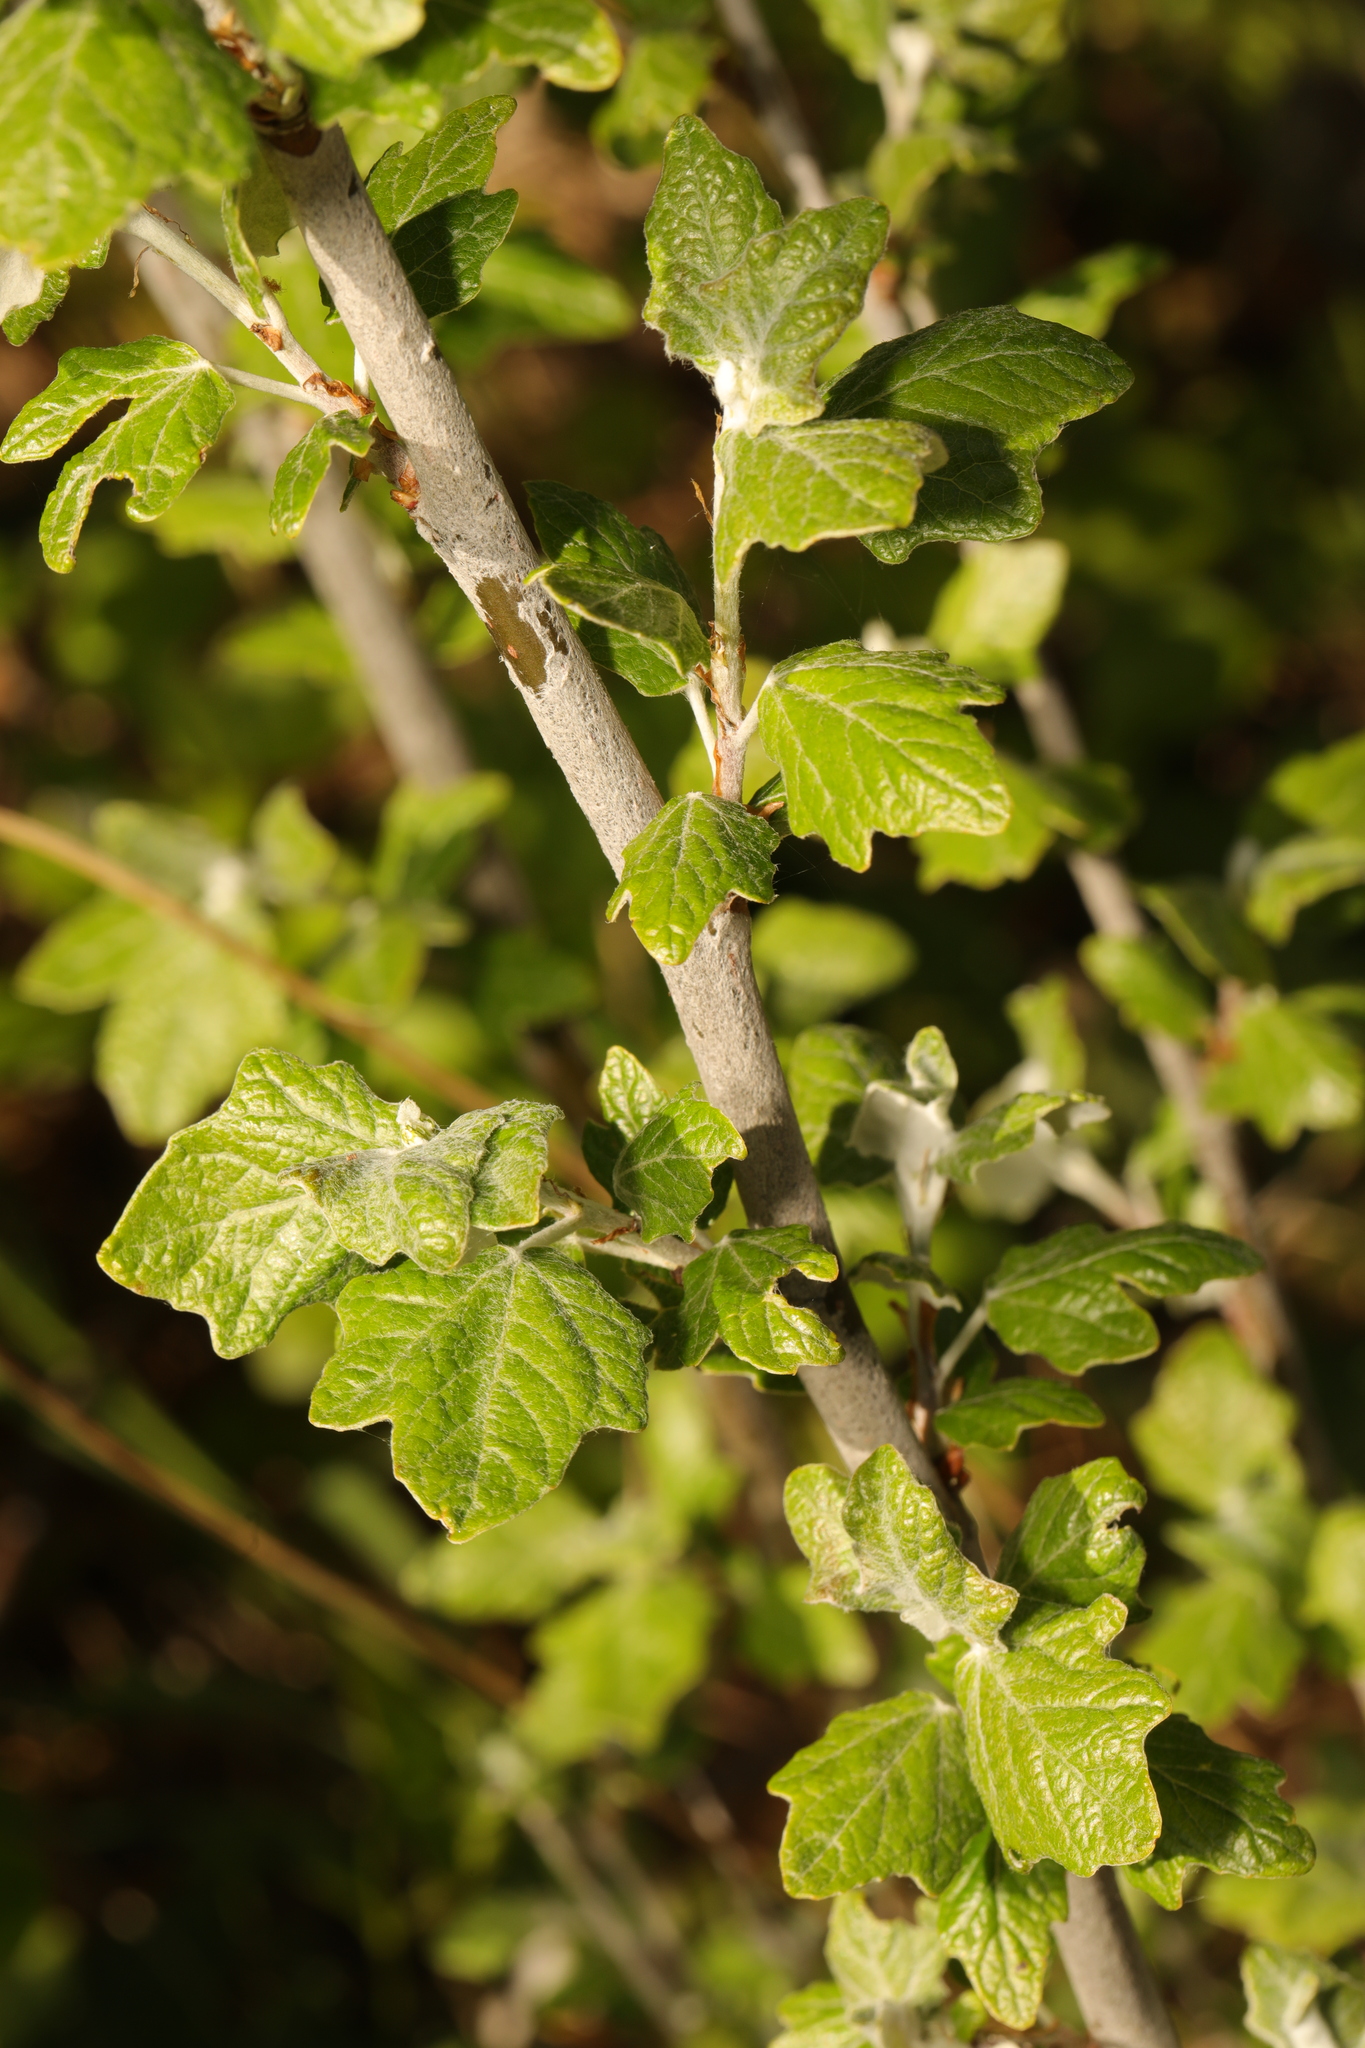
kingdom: Plantae
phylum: Tracheophyta
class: Magnoliopsida
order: Malpighiales
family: Salicaceae
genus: Populus
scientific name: Populus alba
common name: White poplar
